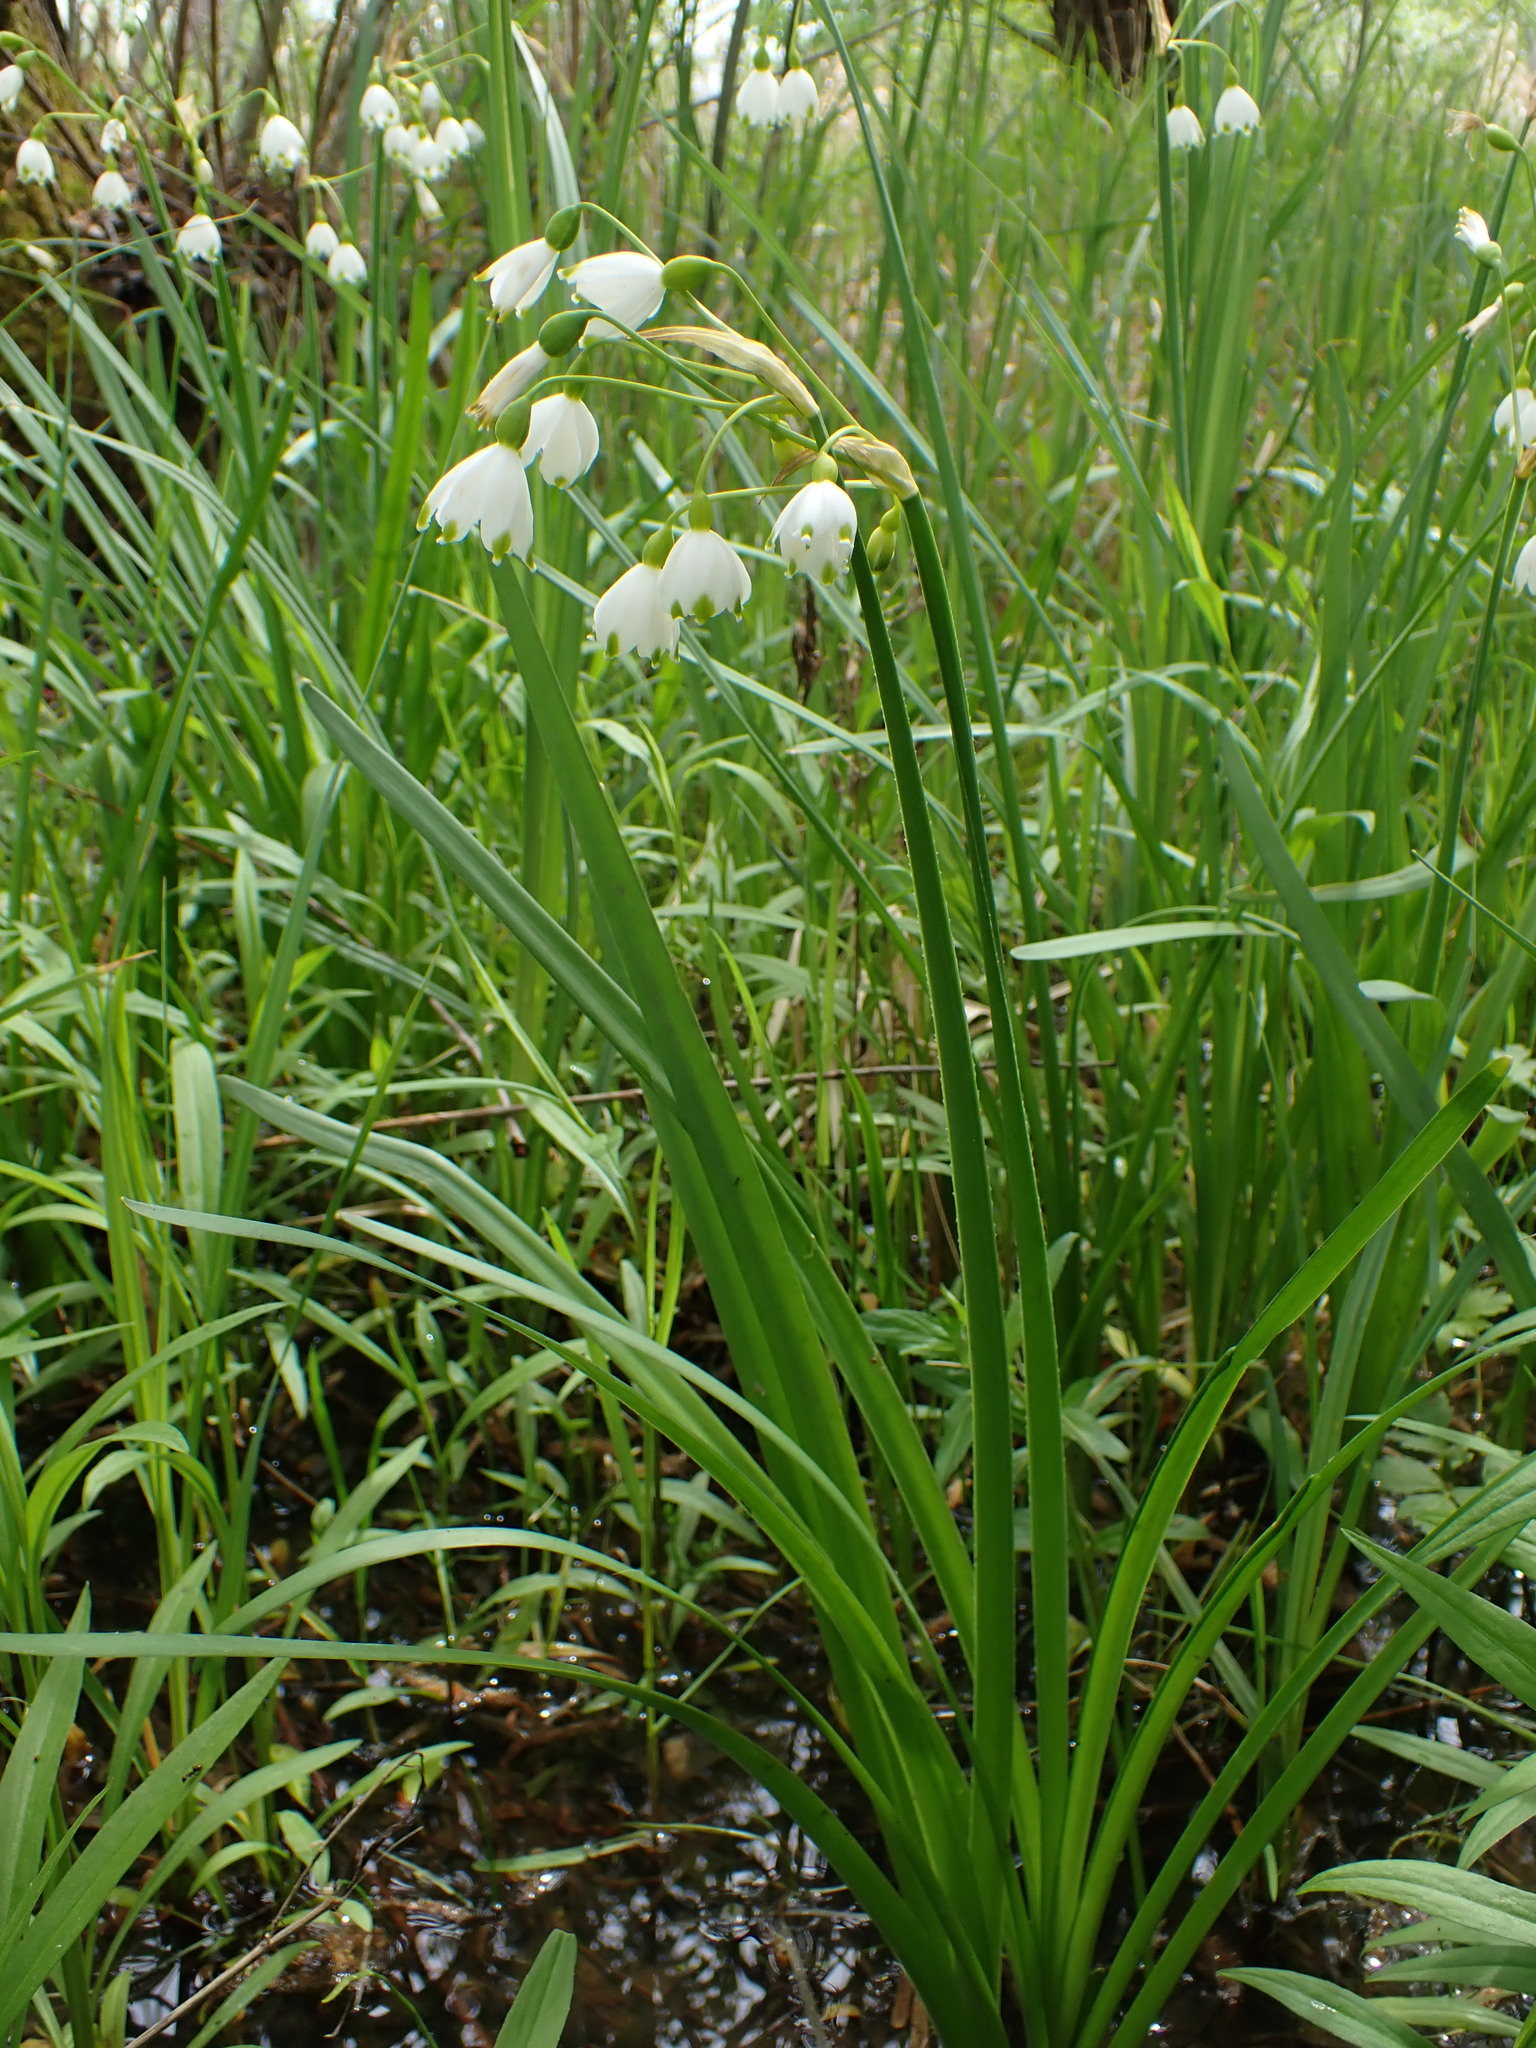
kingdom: Plantae
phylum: Tracheophyta
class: Liliopsida
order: Asparagales
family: Amaryllidaceae
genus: Leucojum
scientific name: Leucojum aestivum
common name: Summer snowflake
